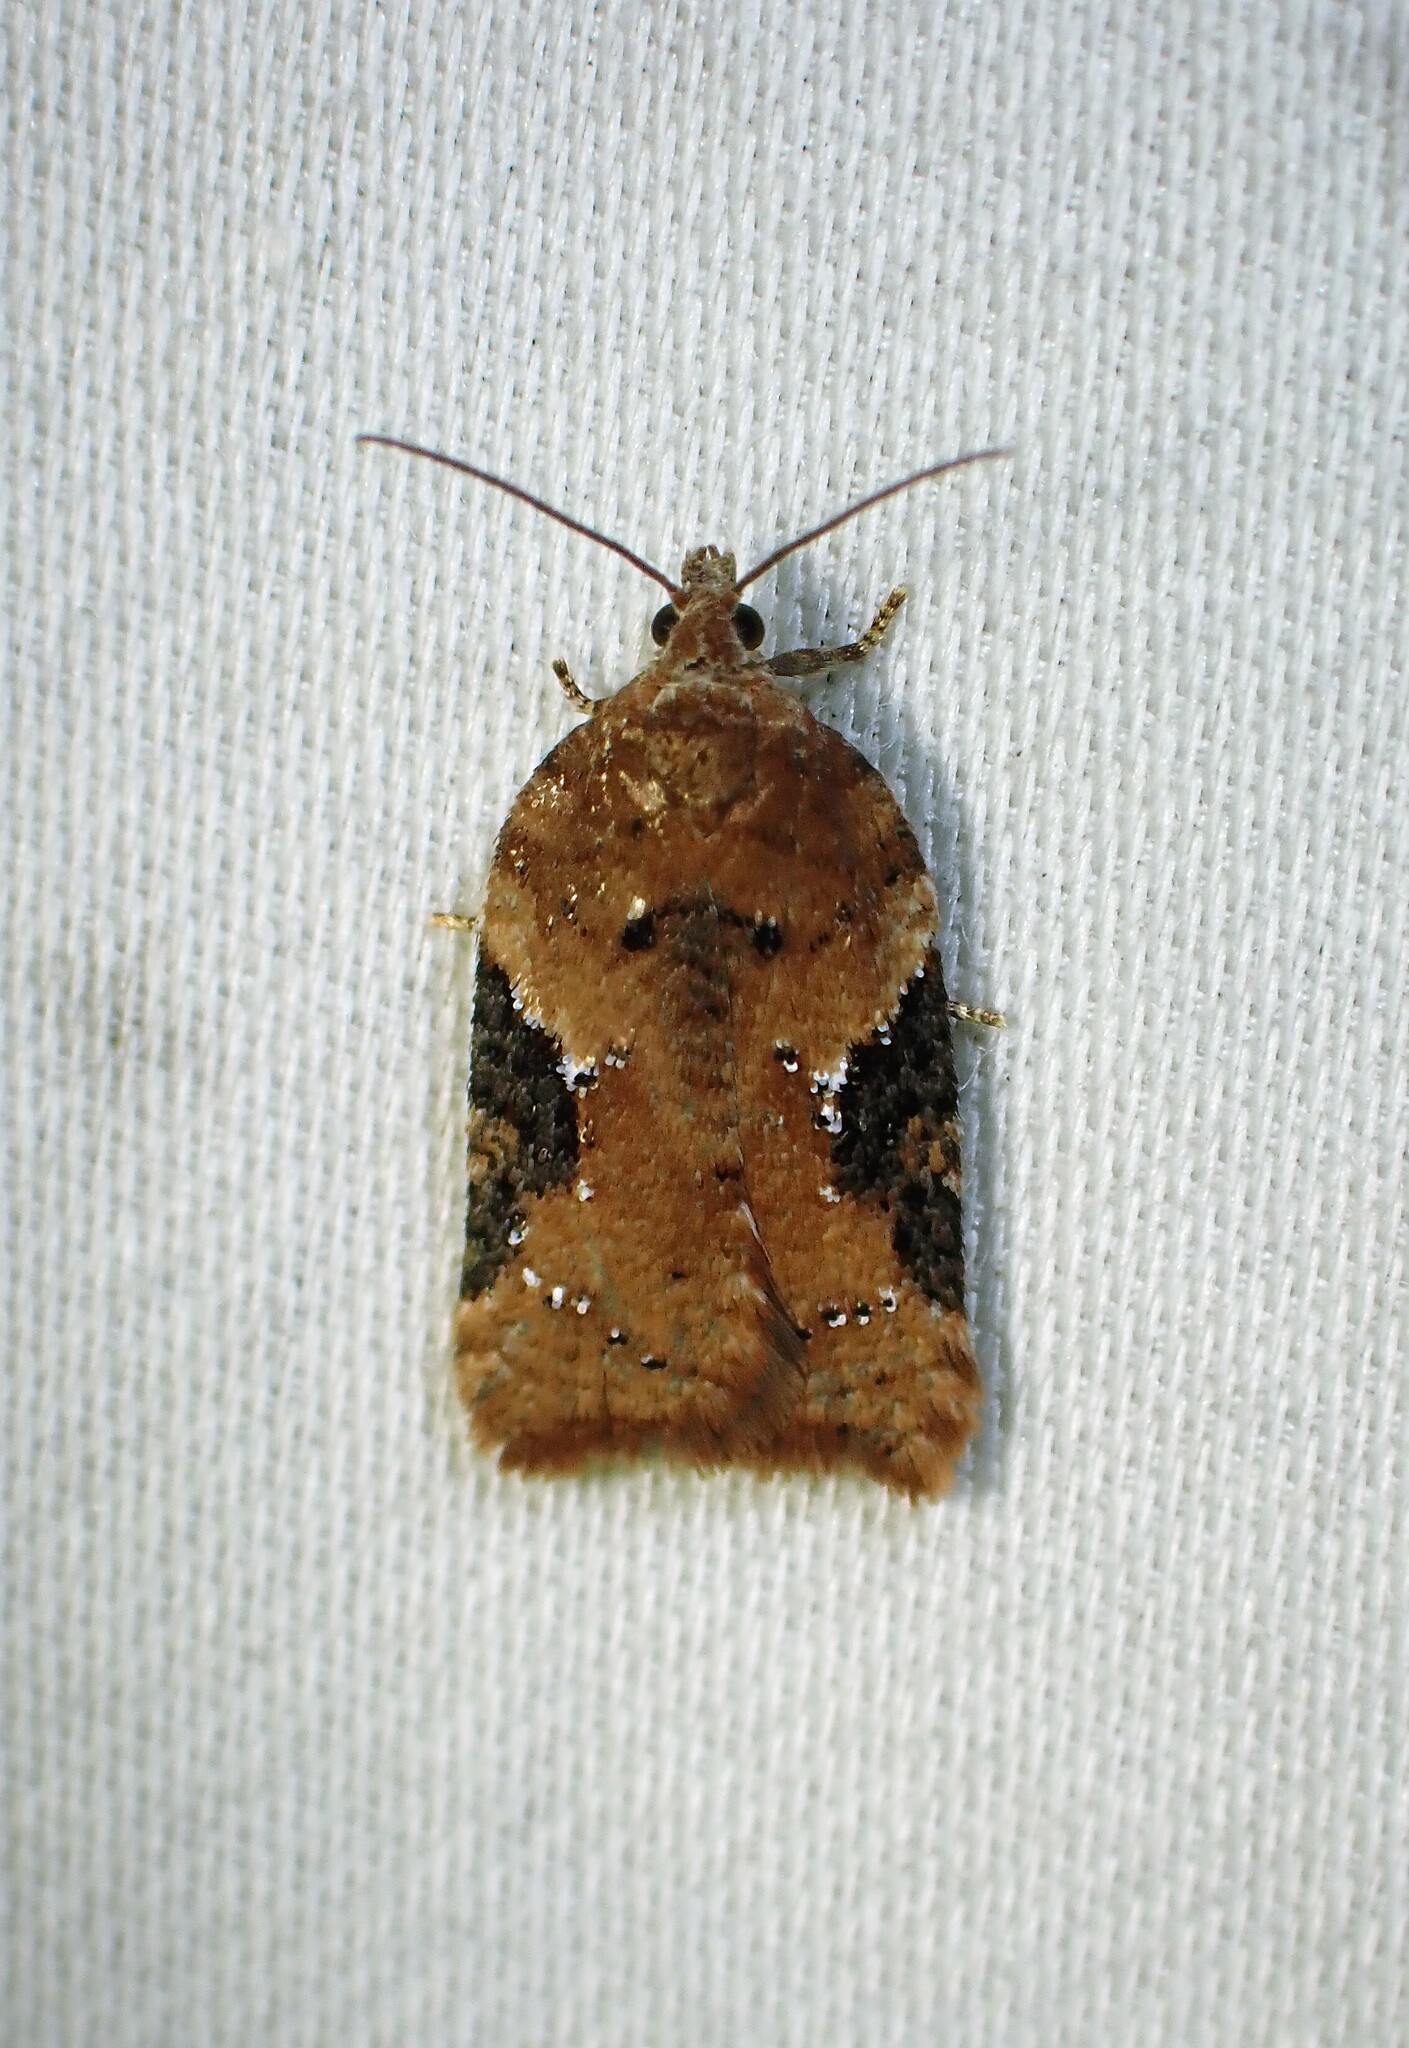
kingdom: Animalia
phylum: Arthropoda
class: Insecta
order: Lepidoptera
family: Tortricidae
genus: Acleris
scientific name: Acleris braunana
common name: Alder leafroller
